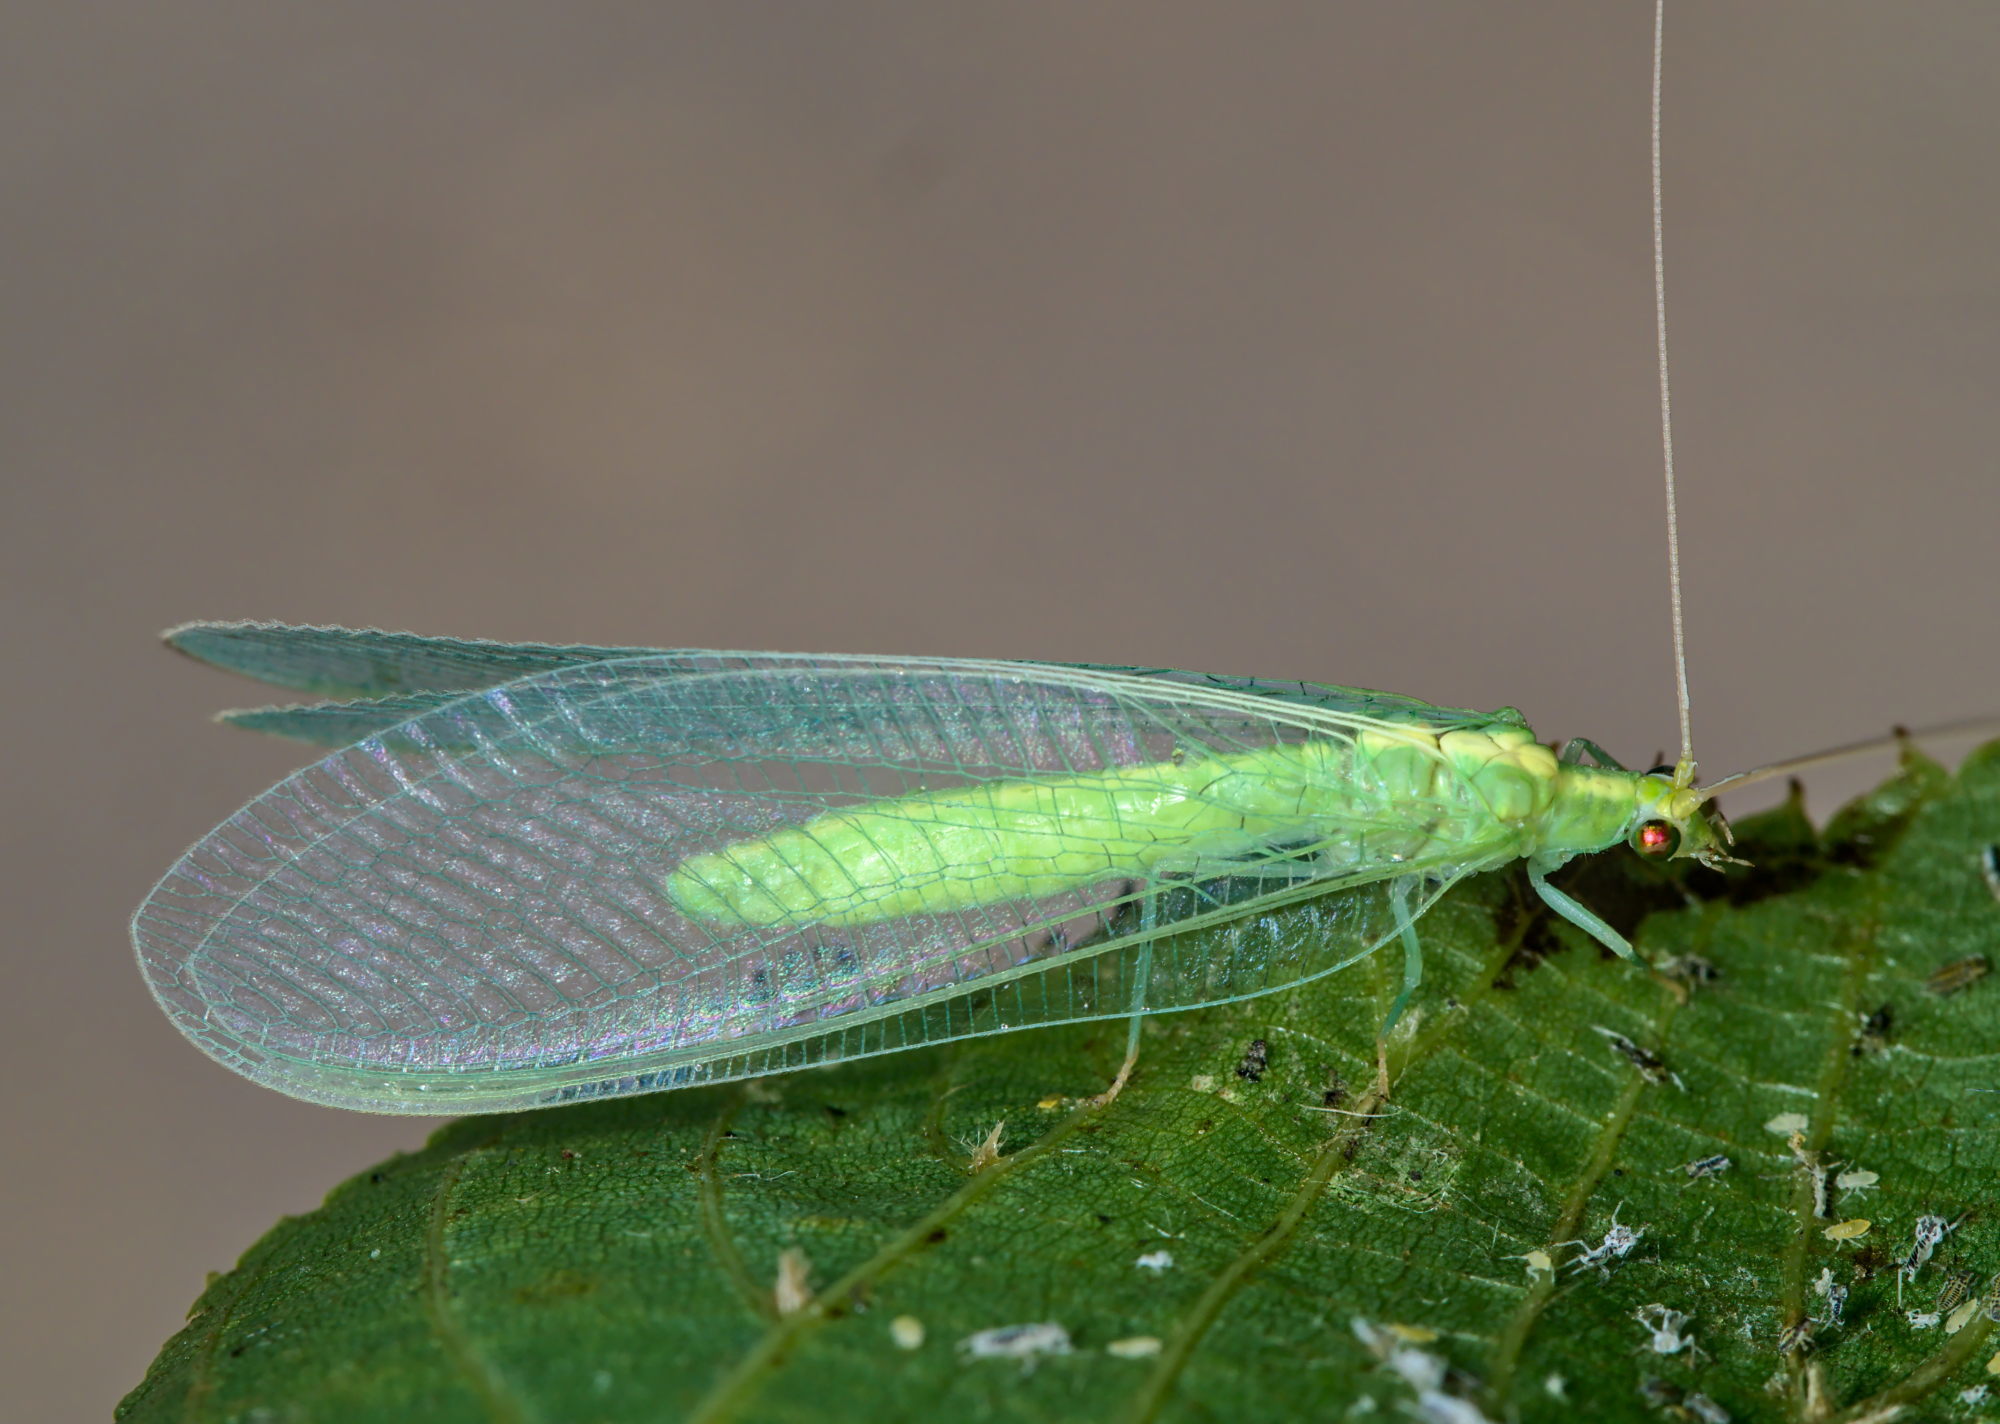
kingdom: Animalia
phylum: Arthropoda
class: Insecta
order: Neuroptera
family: Chrysopidae
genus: Nineta
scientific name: Nineta flava
